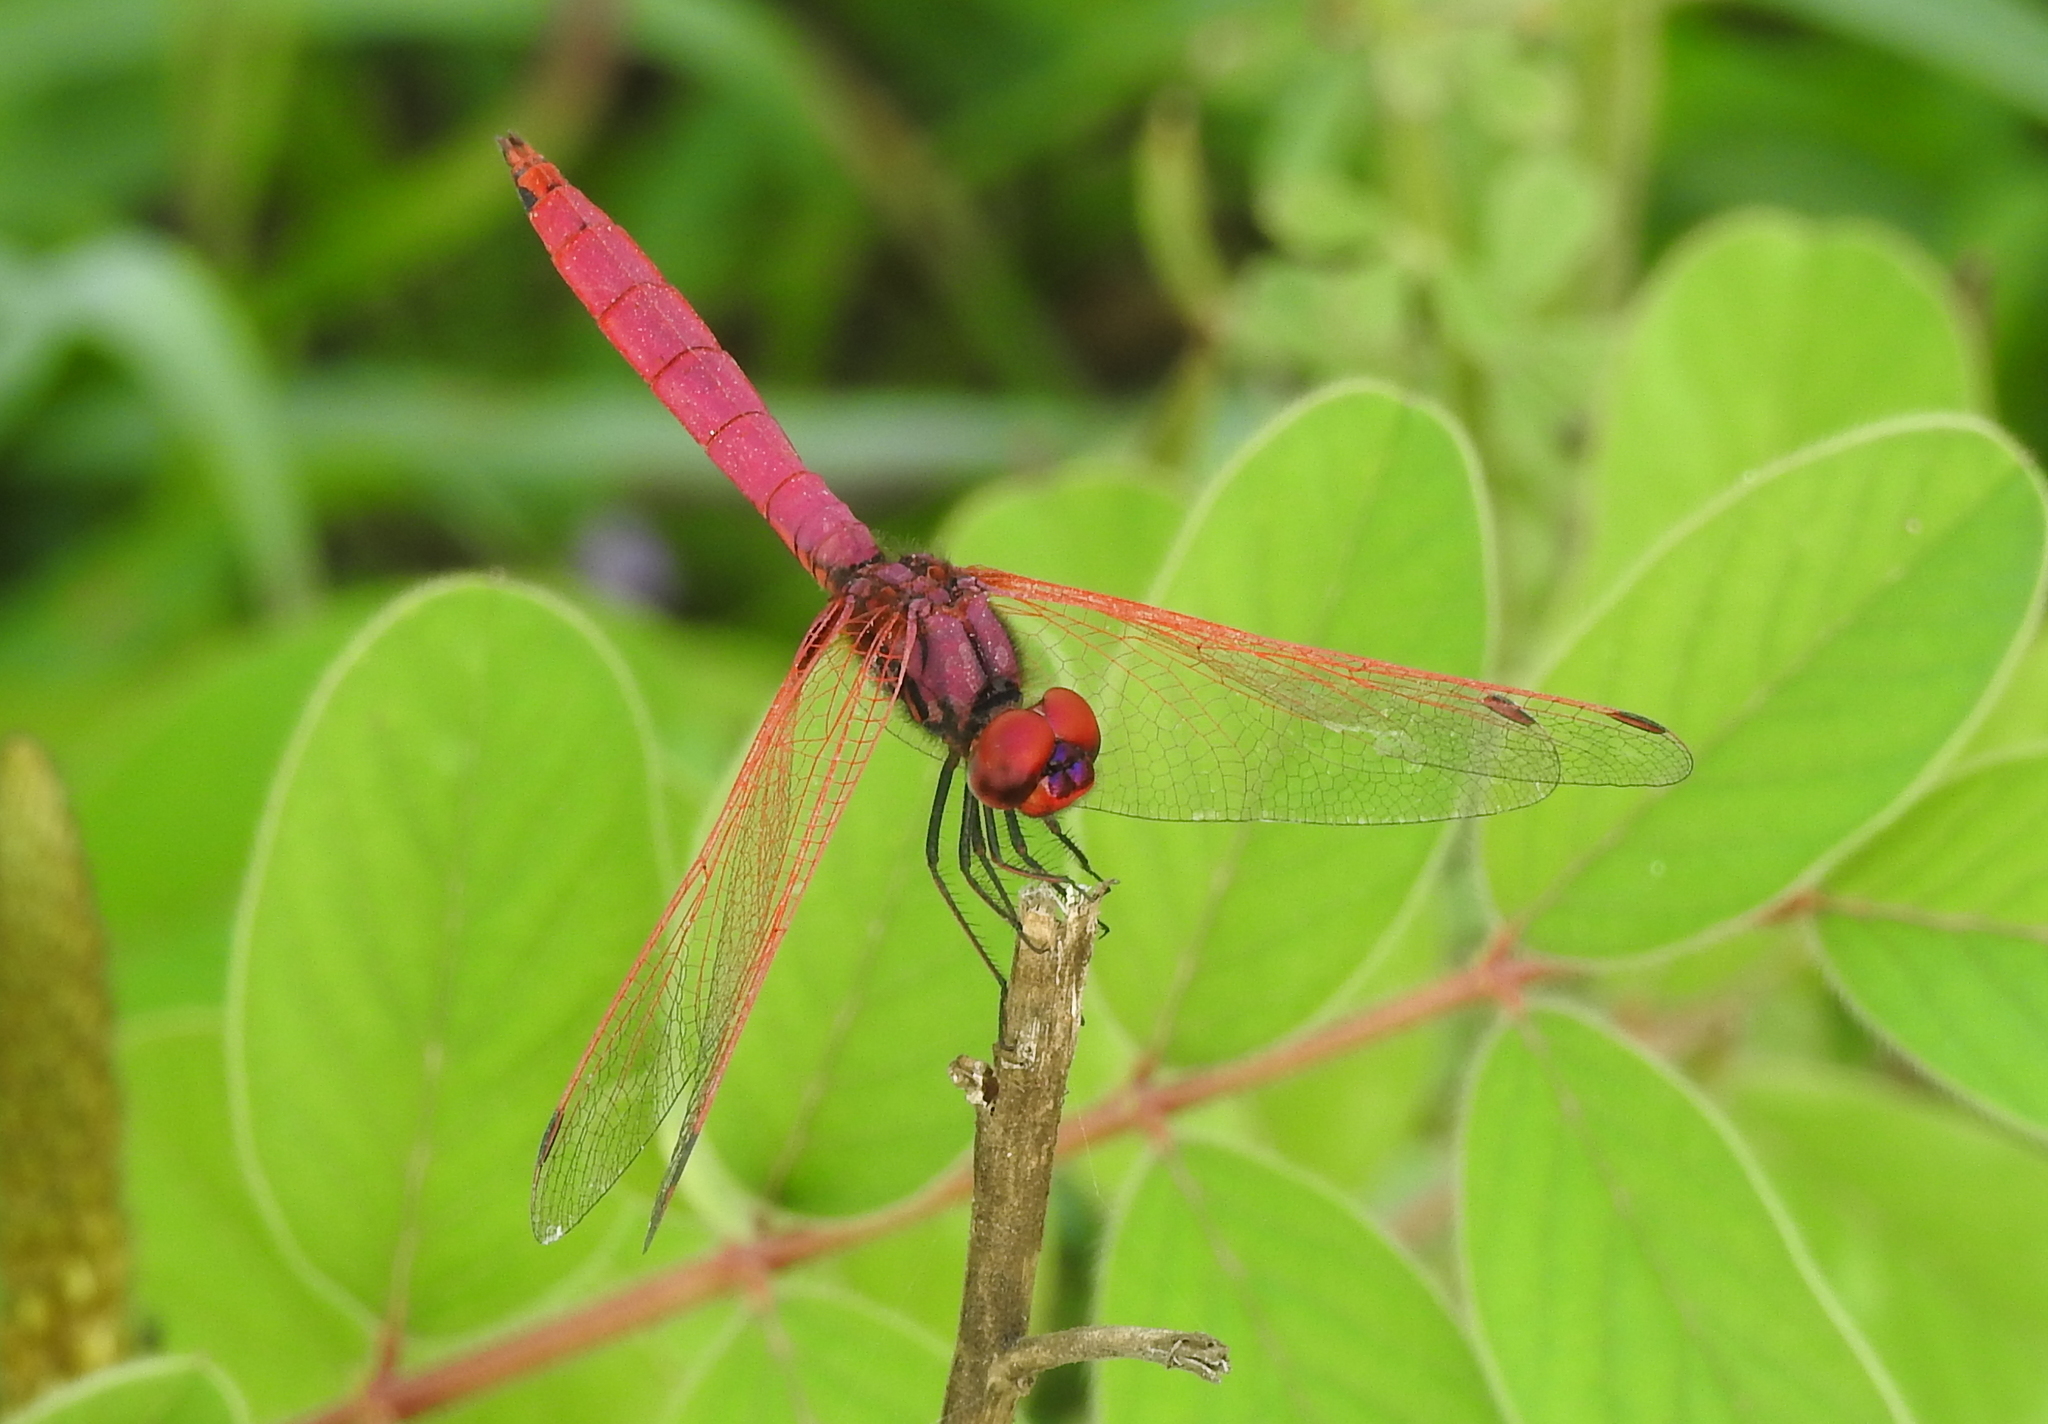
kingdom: Animalia
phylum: Arthropoda
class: Insecta
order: Odonata
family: Libellulidae
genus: Trithemis
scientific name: Trithemis aurora
